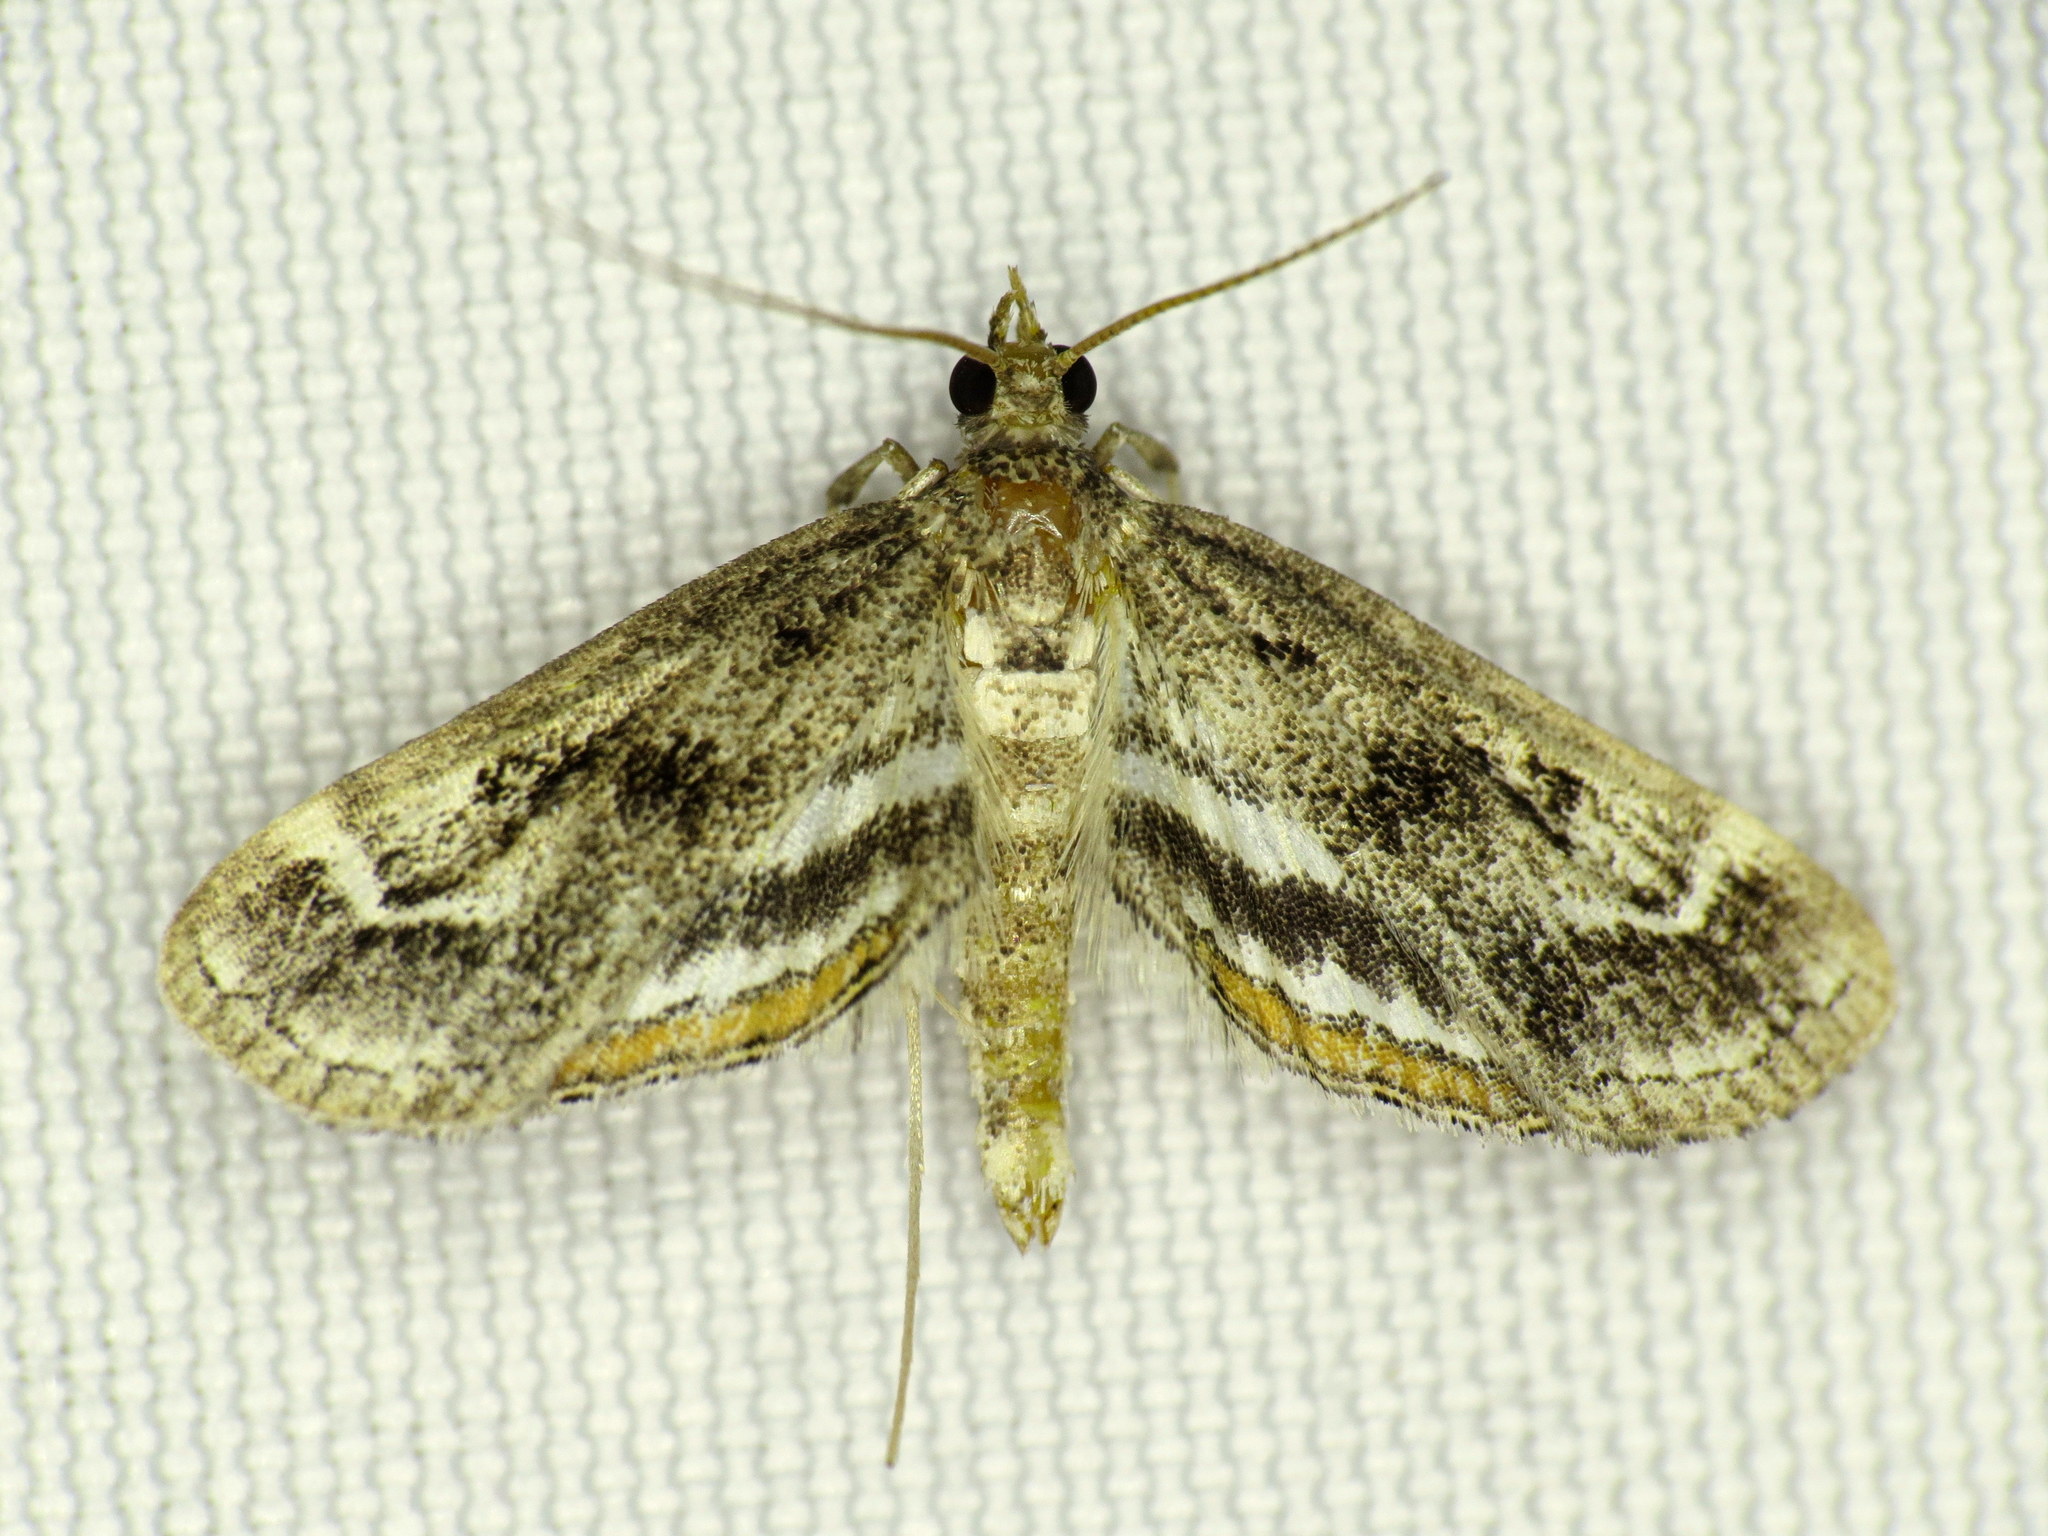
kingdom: Animalia
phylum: Arthropoda
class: Insecta
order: Lepidoptera
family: Crambidae
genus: Parapoynx
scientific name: Parapoynx obscuralis
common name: American china-mark
